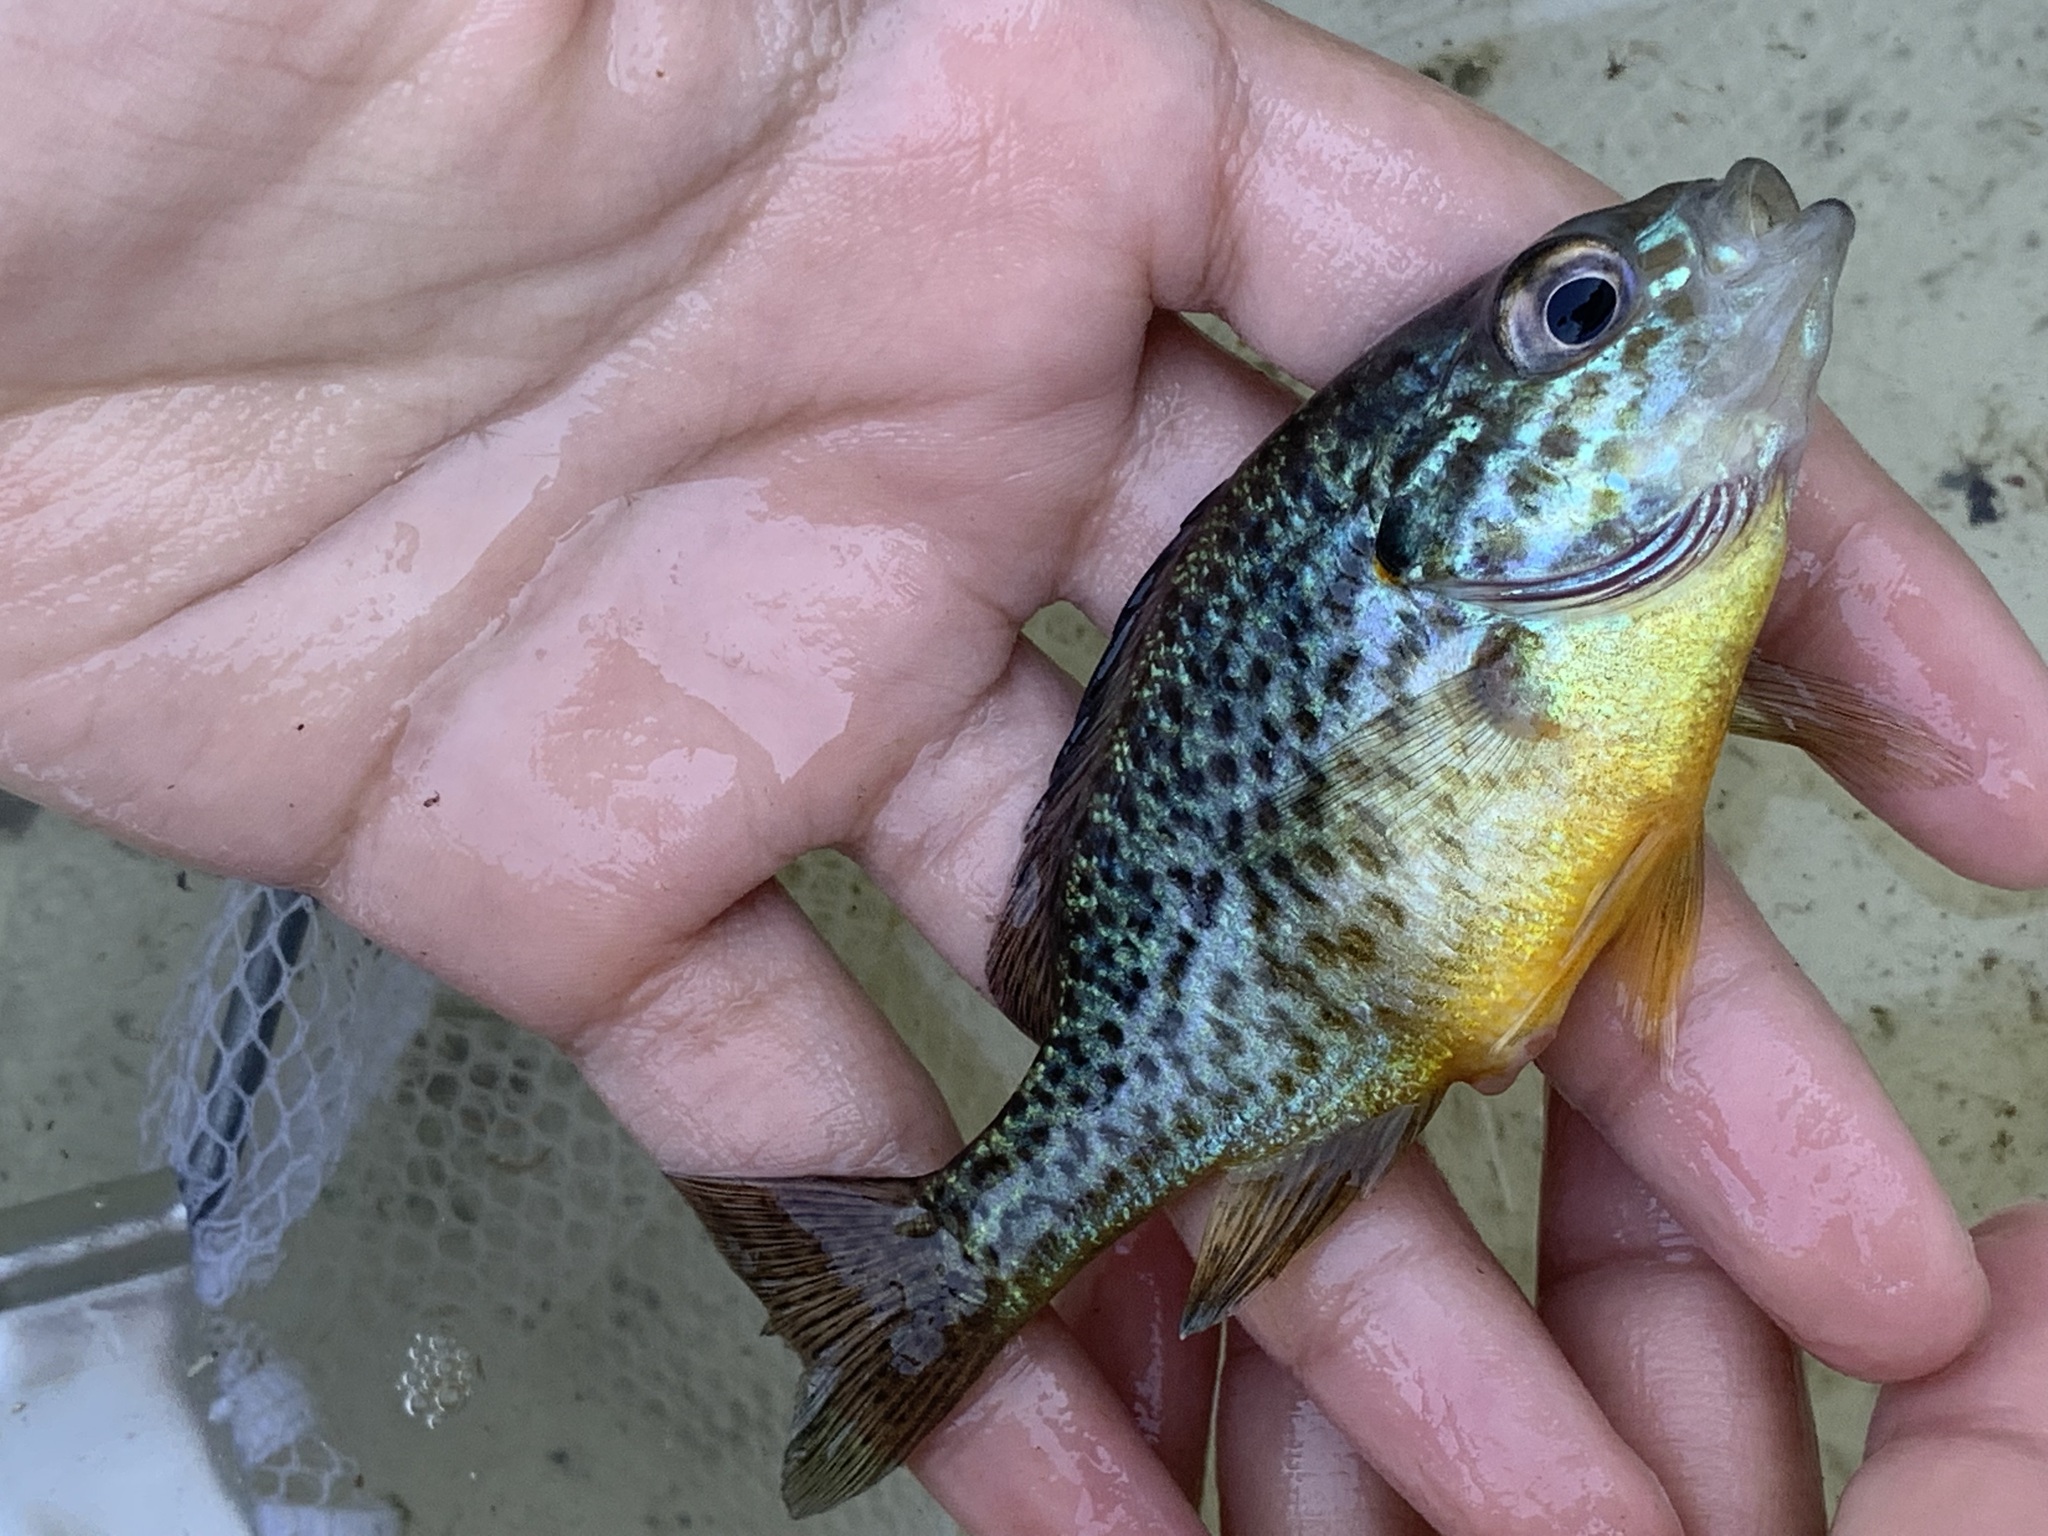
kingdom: Animalia
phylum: Chordata
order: Perciformes
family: Centrarchidae
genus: Lepomis
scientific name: Lepomis gibbosus
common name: Pumpkinseed
